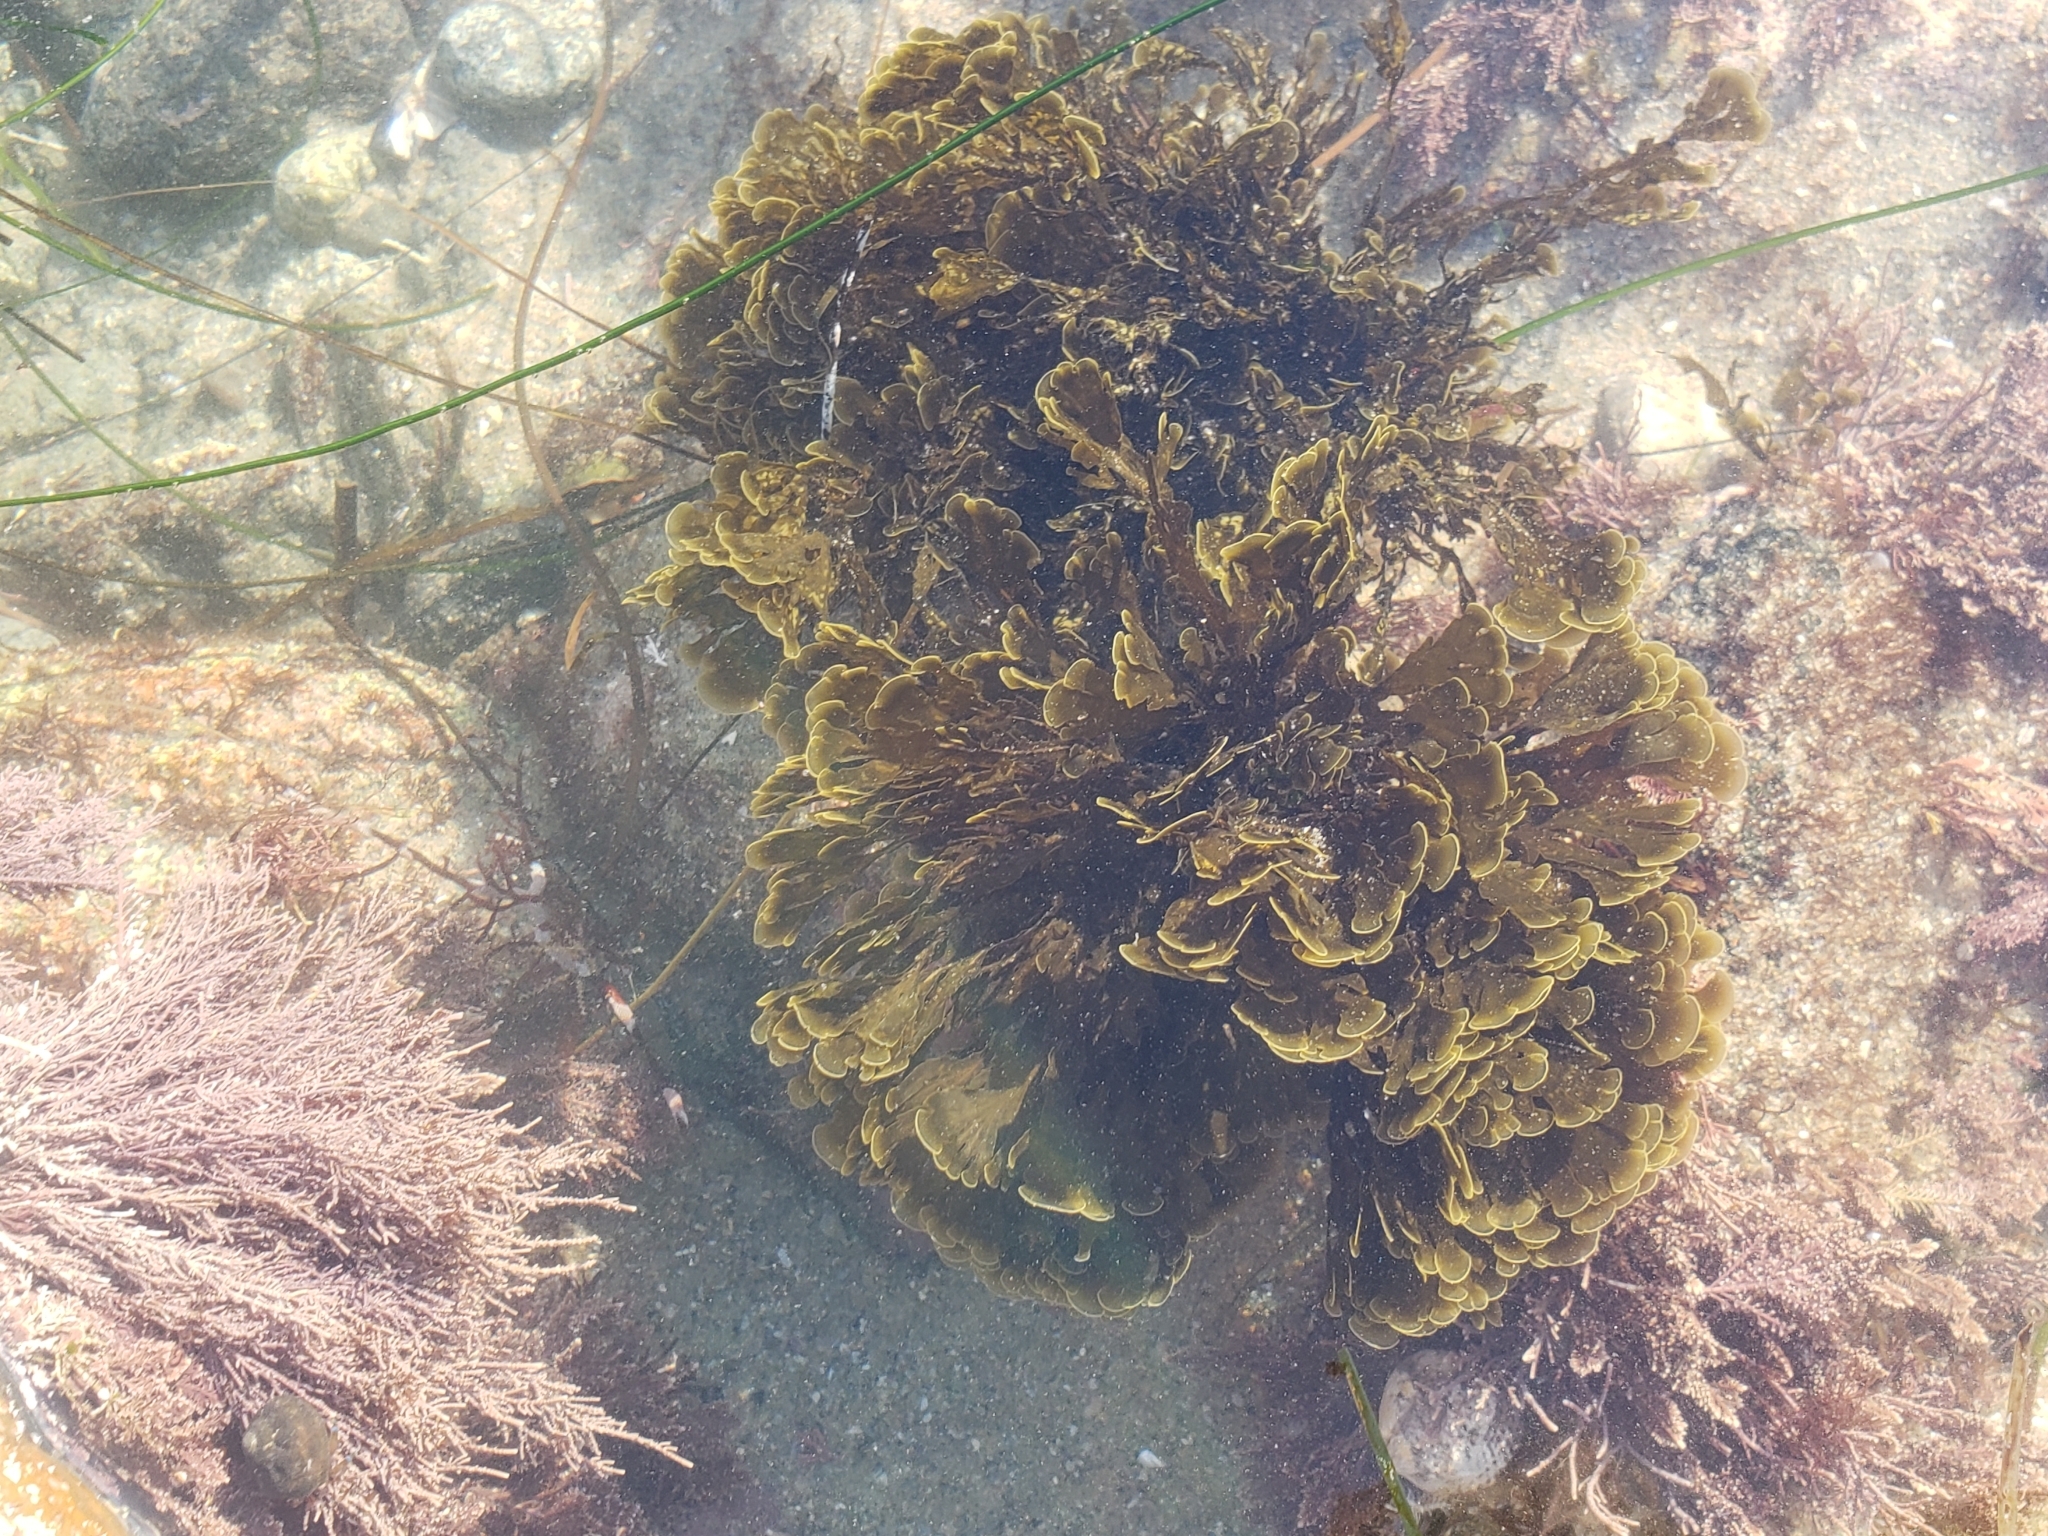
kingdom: Chromista
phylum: Ochrophyta
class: Phaeophyceae
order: Dictyotales
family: Dictyotaceae
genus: Zonaria
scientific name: Zonaria farlowii
